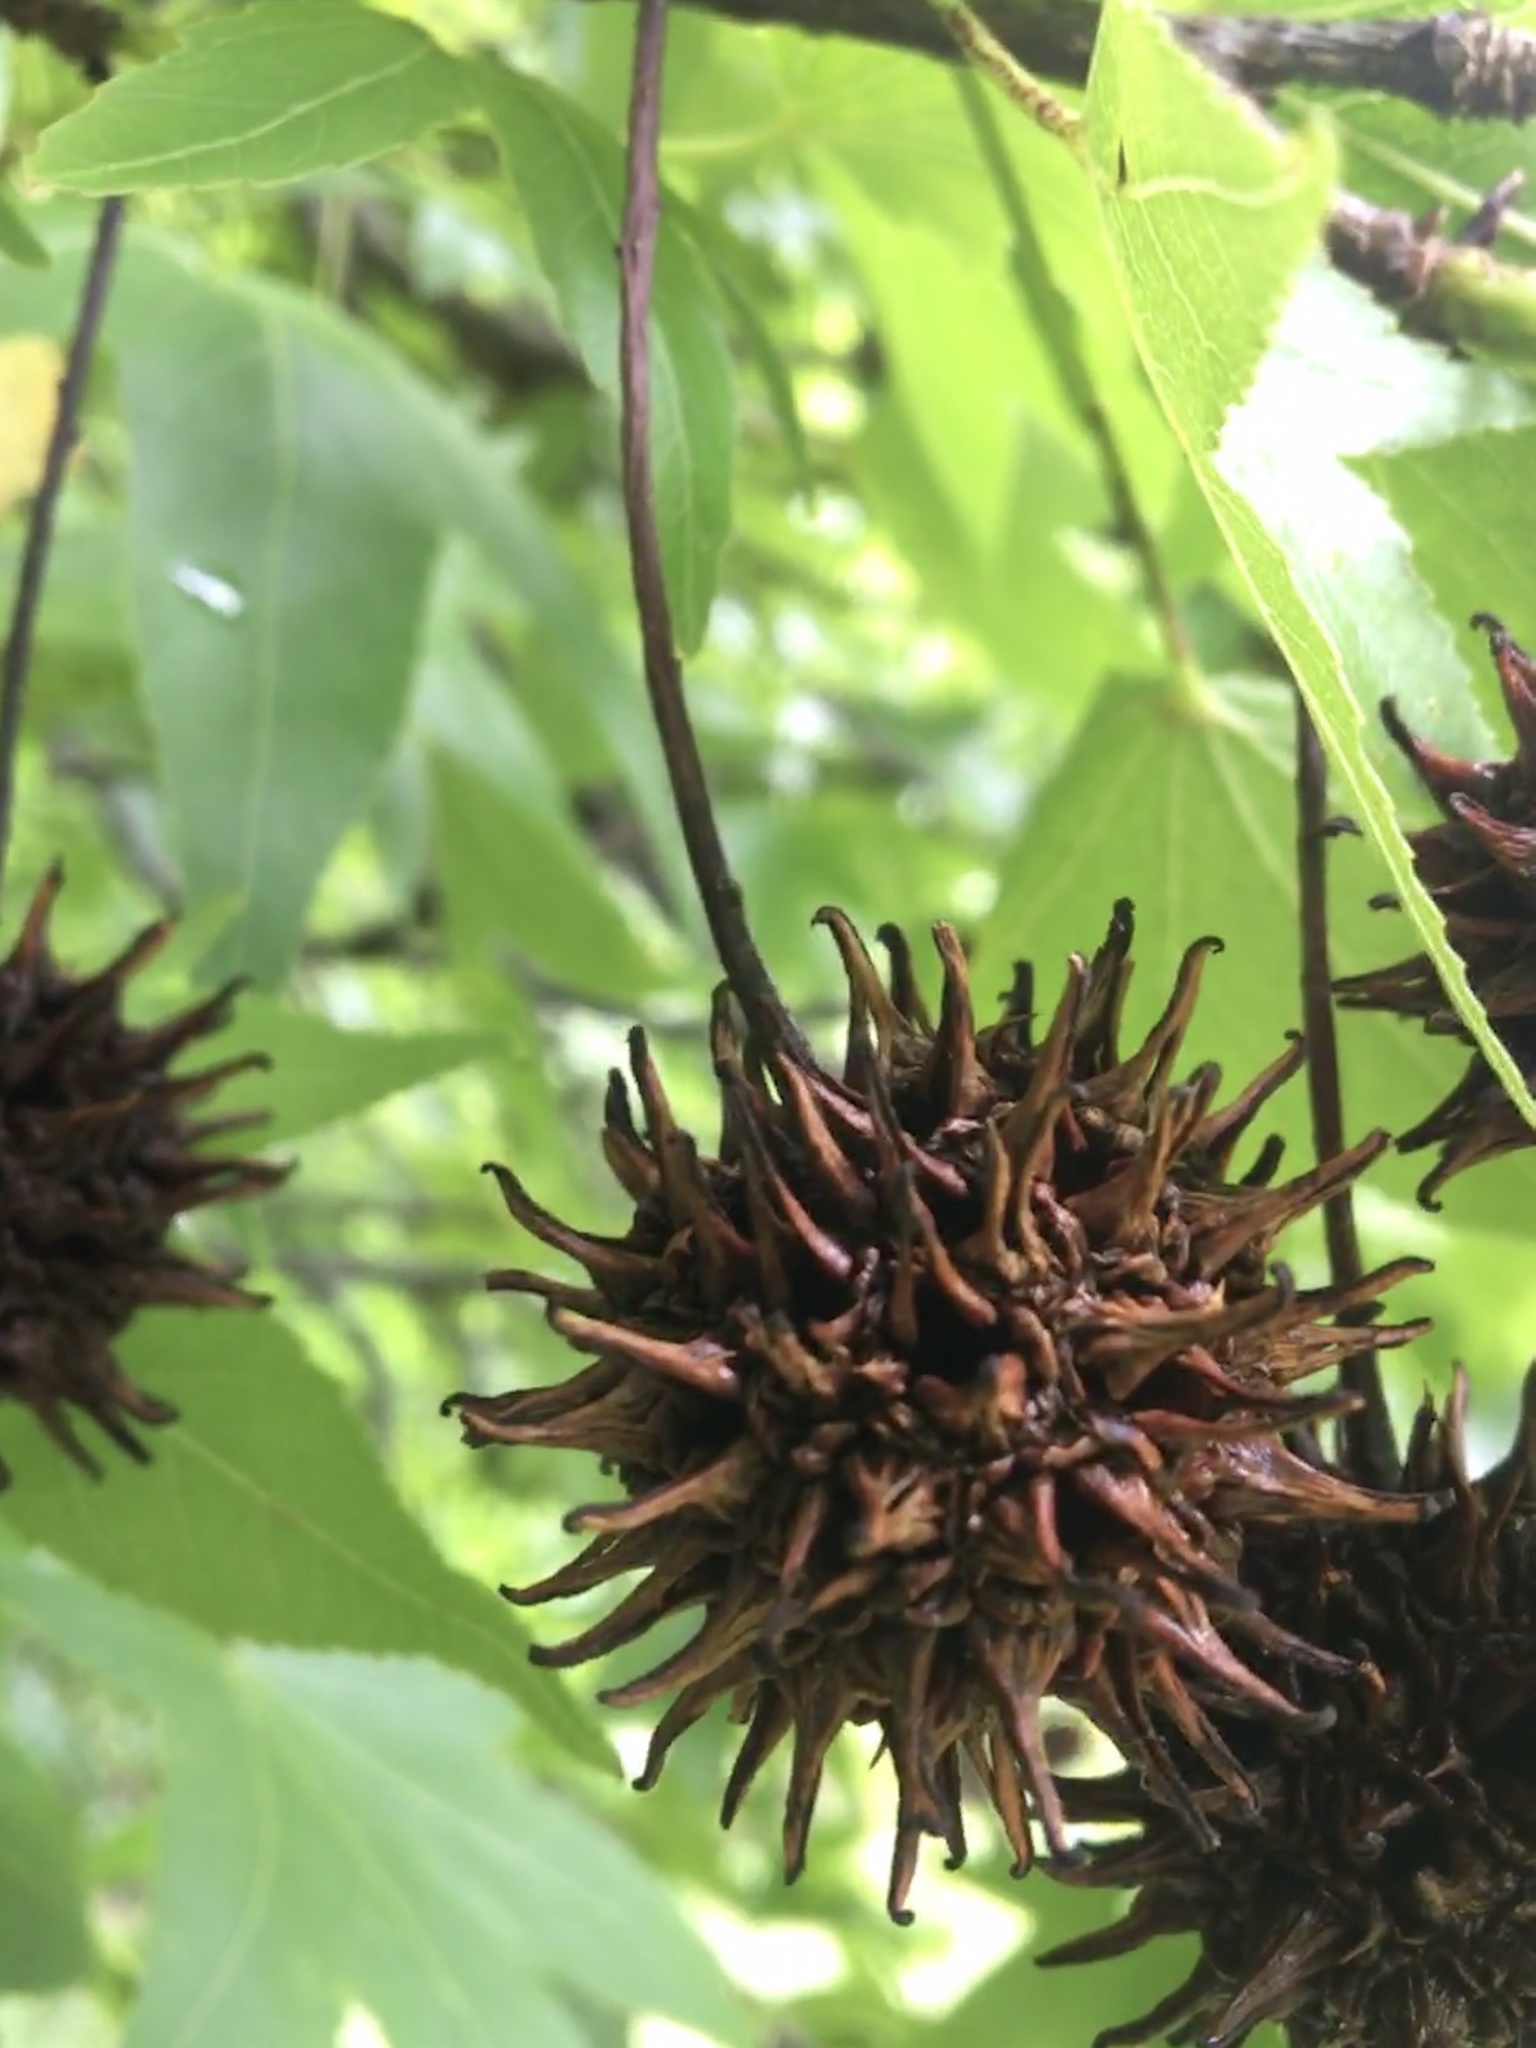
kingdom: Plantae
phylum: Tracheophyta
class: Magnoliopsida
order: Saxifragales
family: Altingiaceae
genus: Liquidambar
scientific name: Liquidambar styraciflua
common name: Sweet gum
